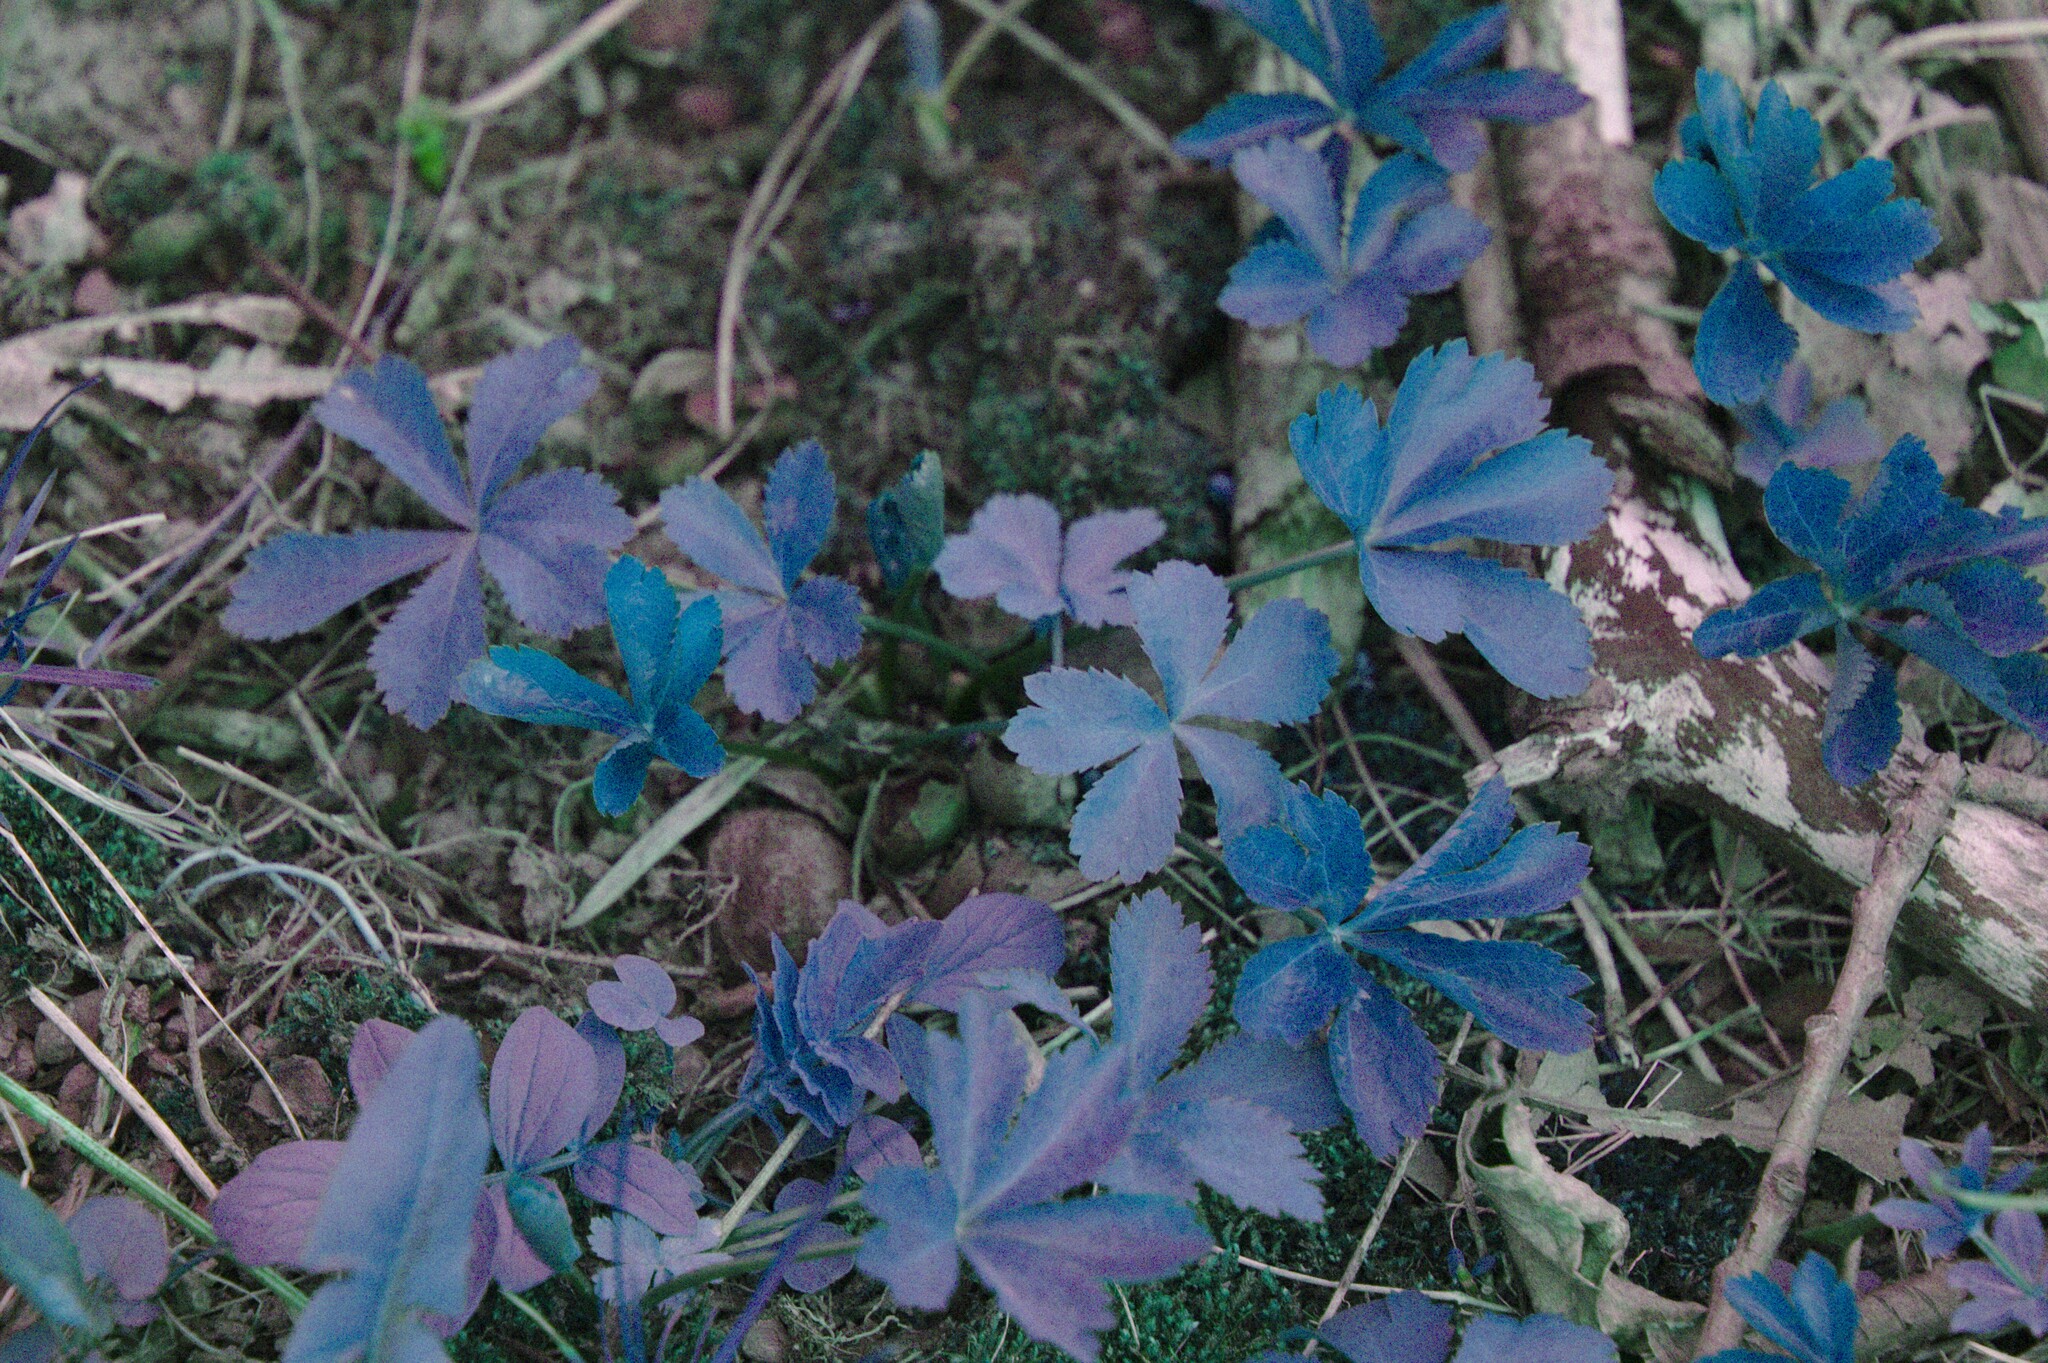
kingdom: Plantae
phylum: Tracheophyta
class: Magnoliopsida
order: Apiales
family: Apiaceae
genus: Sanicula
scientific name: Sanicula marilandica
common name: Black snakeroot
